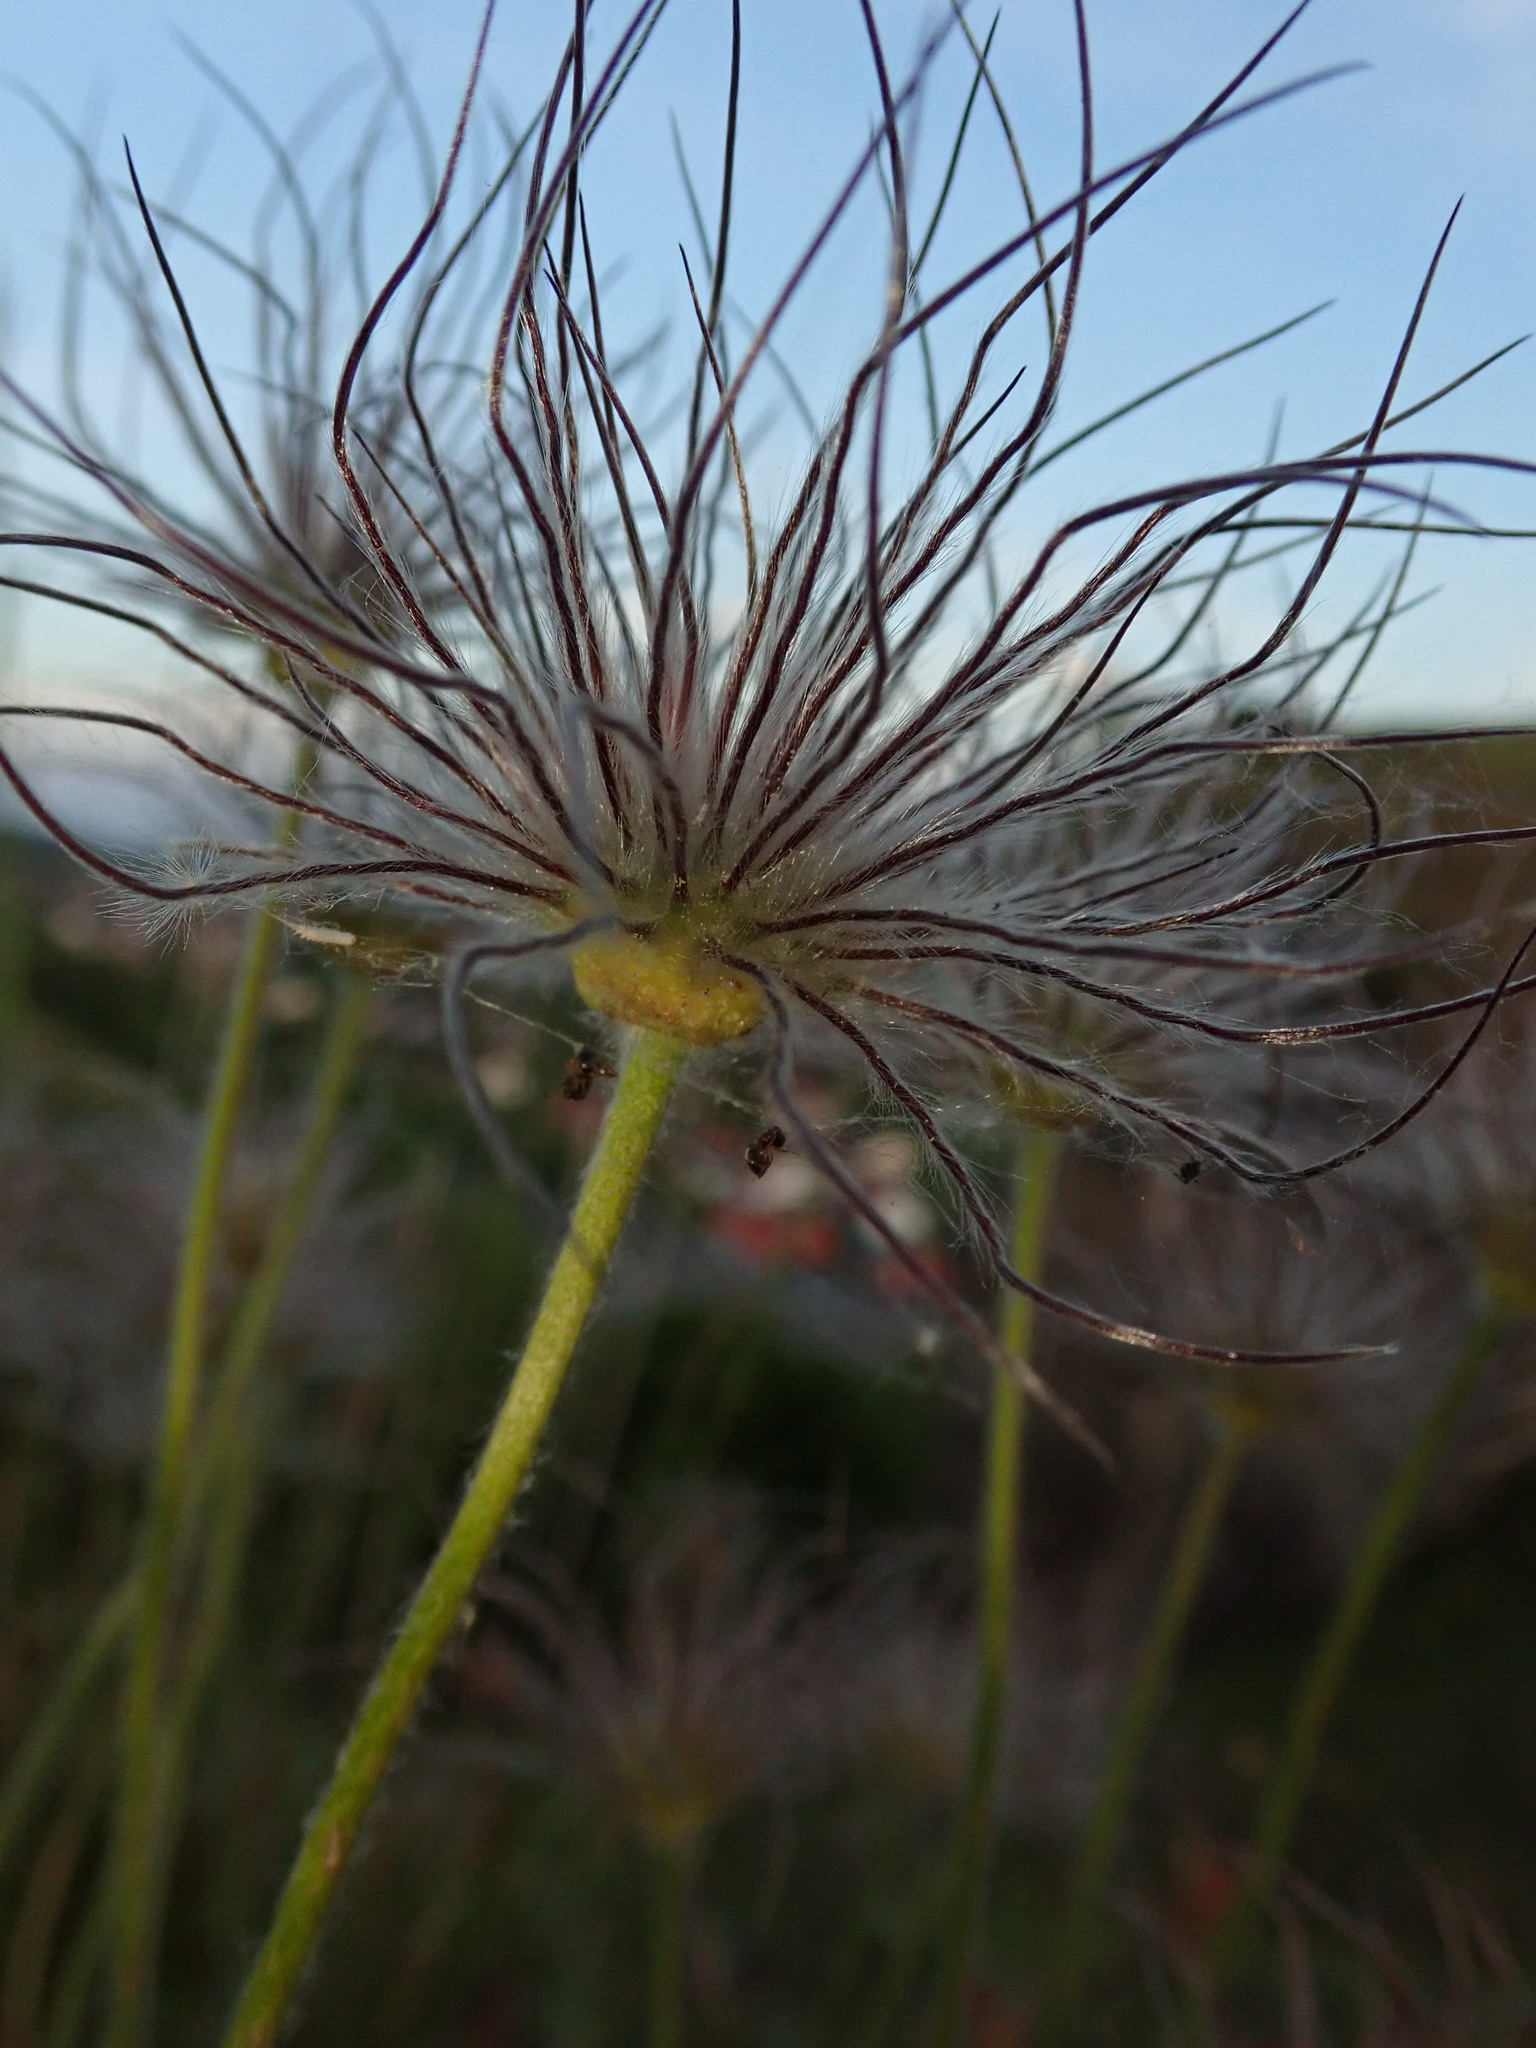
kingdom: Plantae
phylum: Tracheophyta
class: Magnoliopsida
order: Ranunculales
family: Ranunculaceae
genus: Pulsatilla
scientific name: Pulsatilla pratensis
